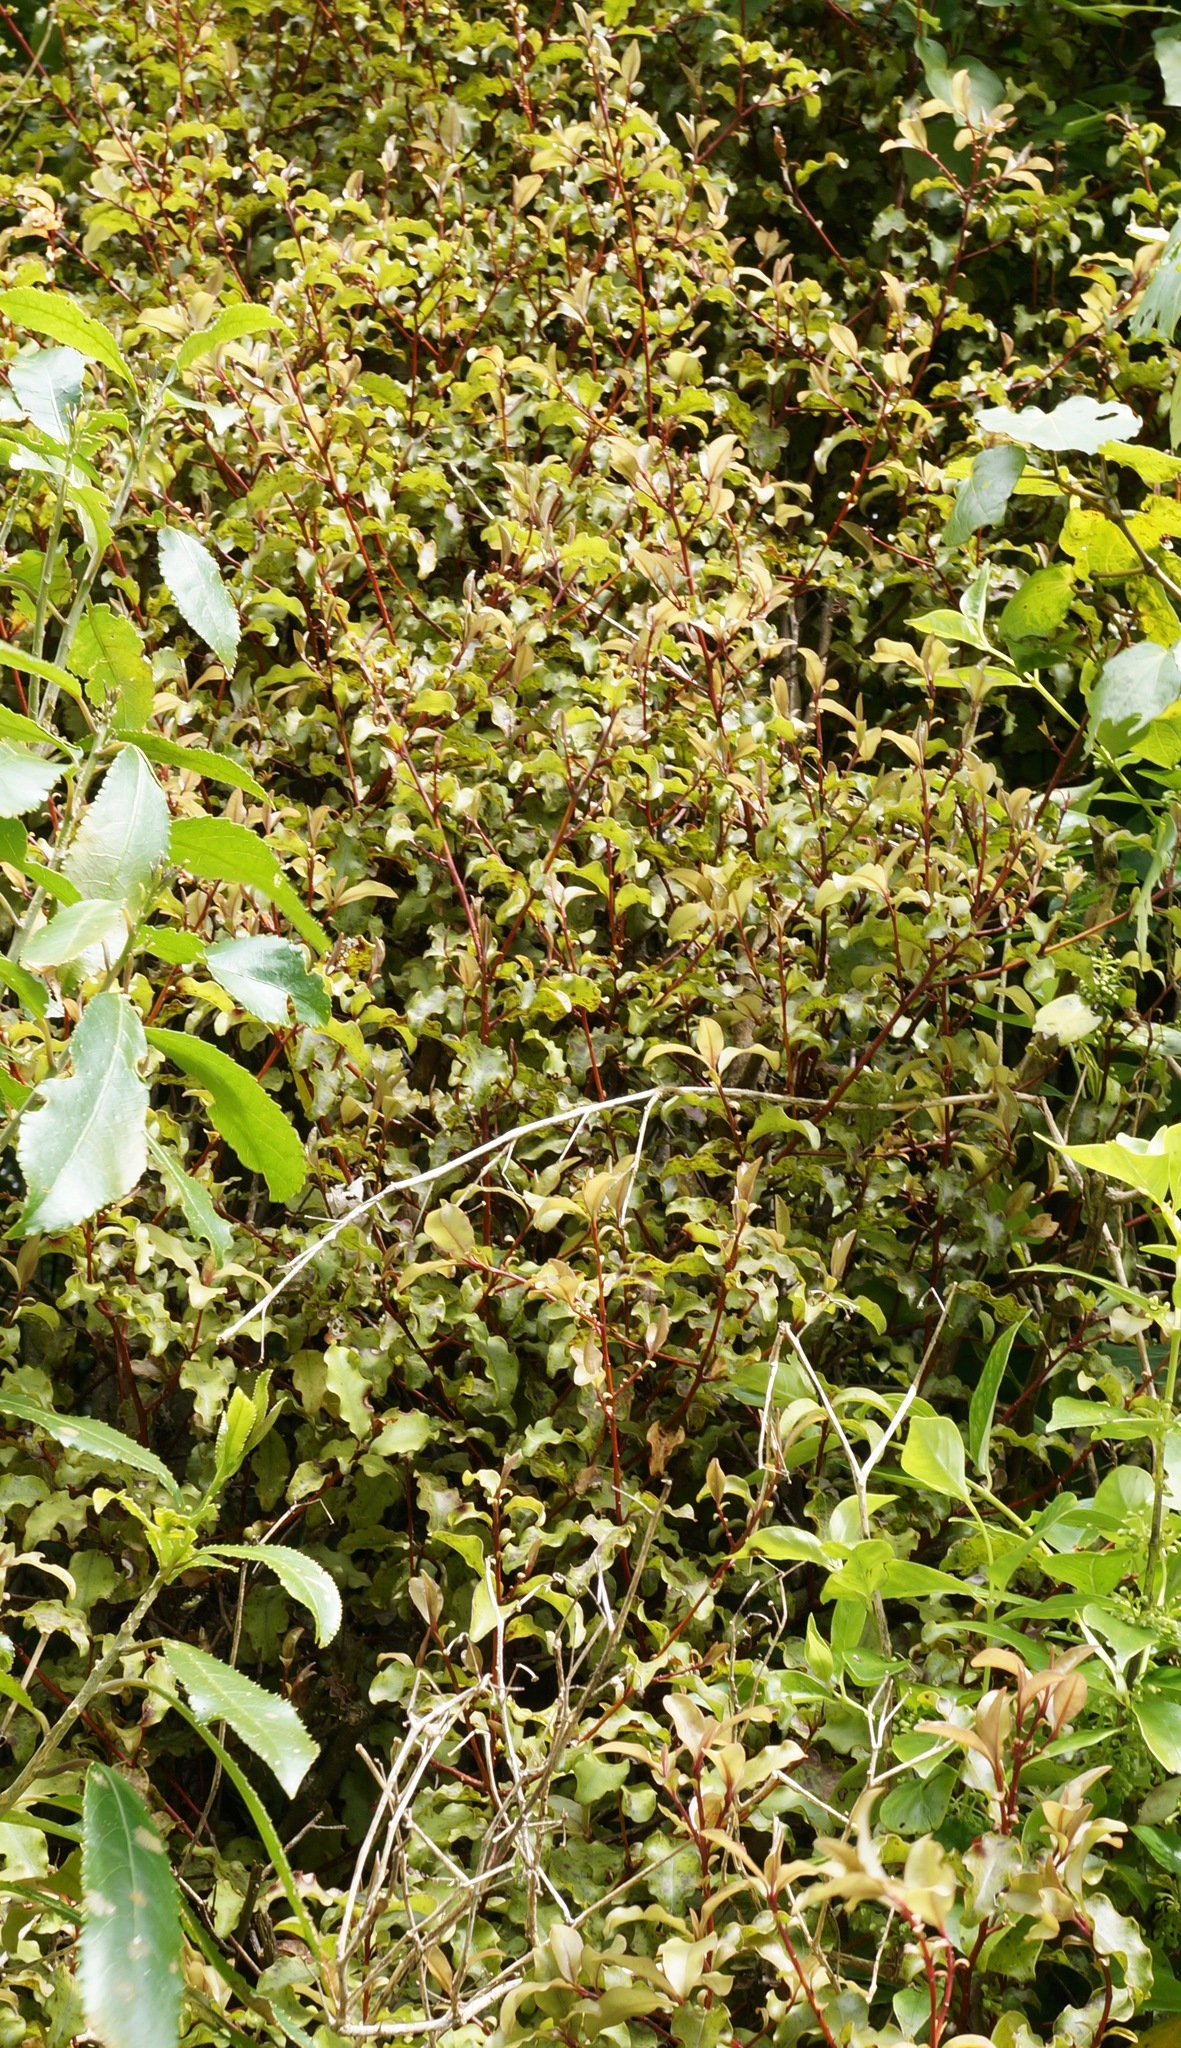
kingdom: Plantae
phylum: Tracheophyta
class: Magnoliopsida
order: Ericales
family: Primulaceae
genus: Myrsine
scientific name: Myrsine australis
